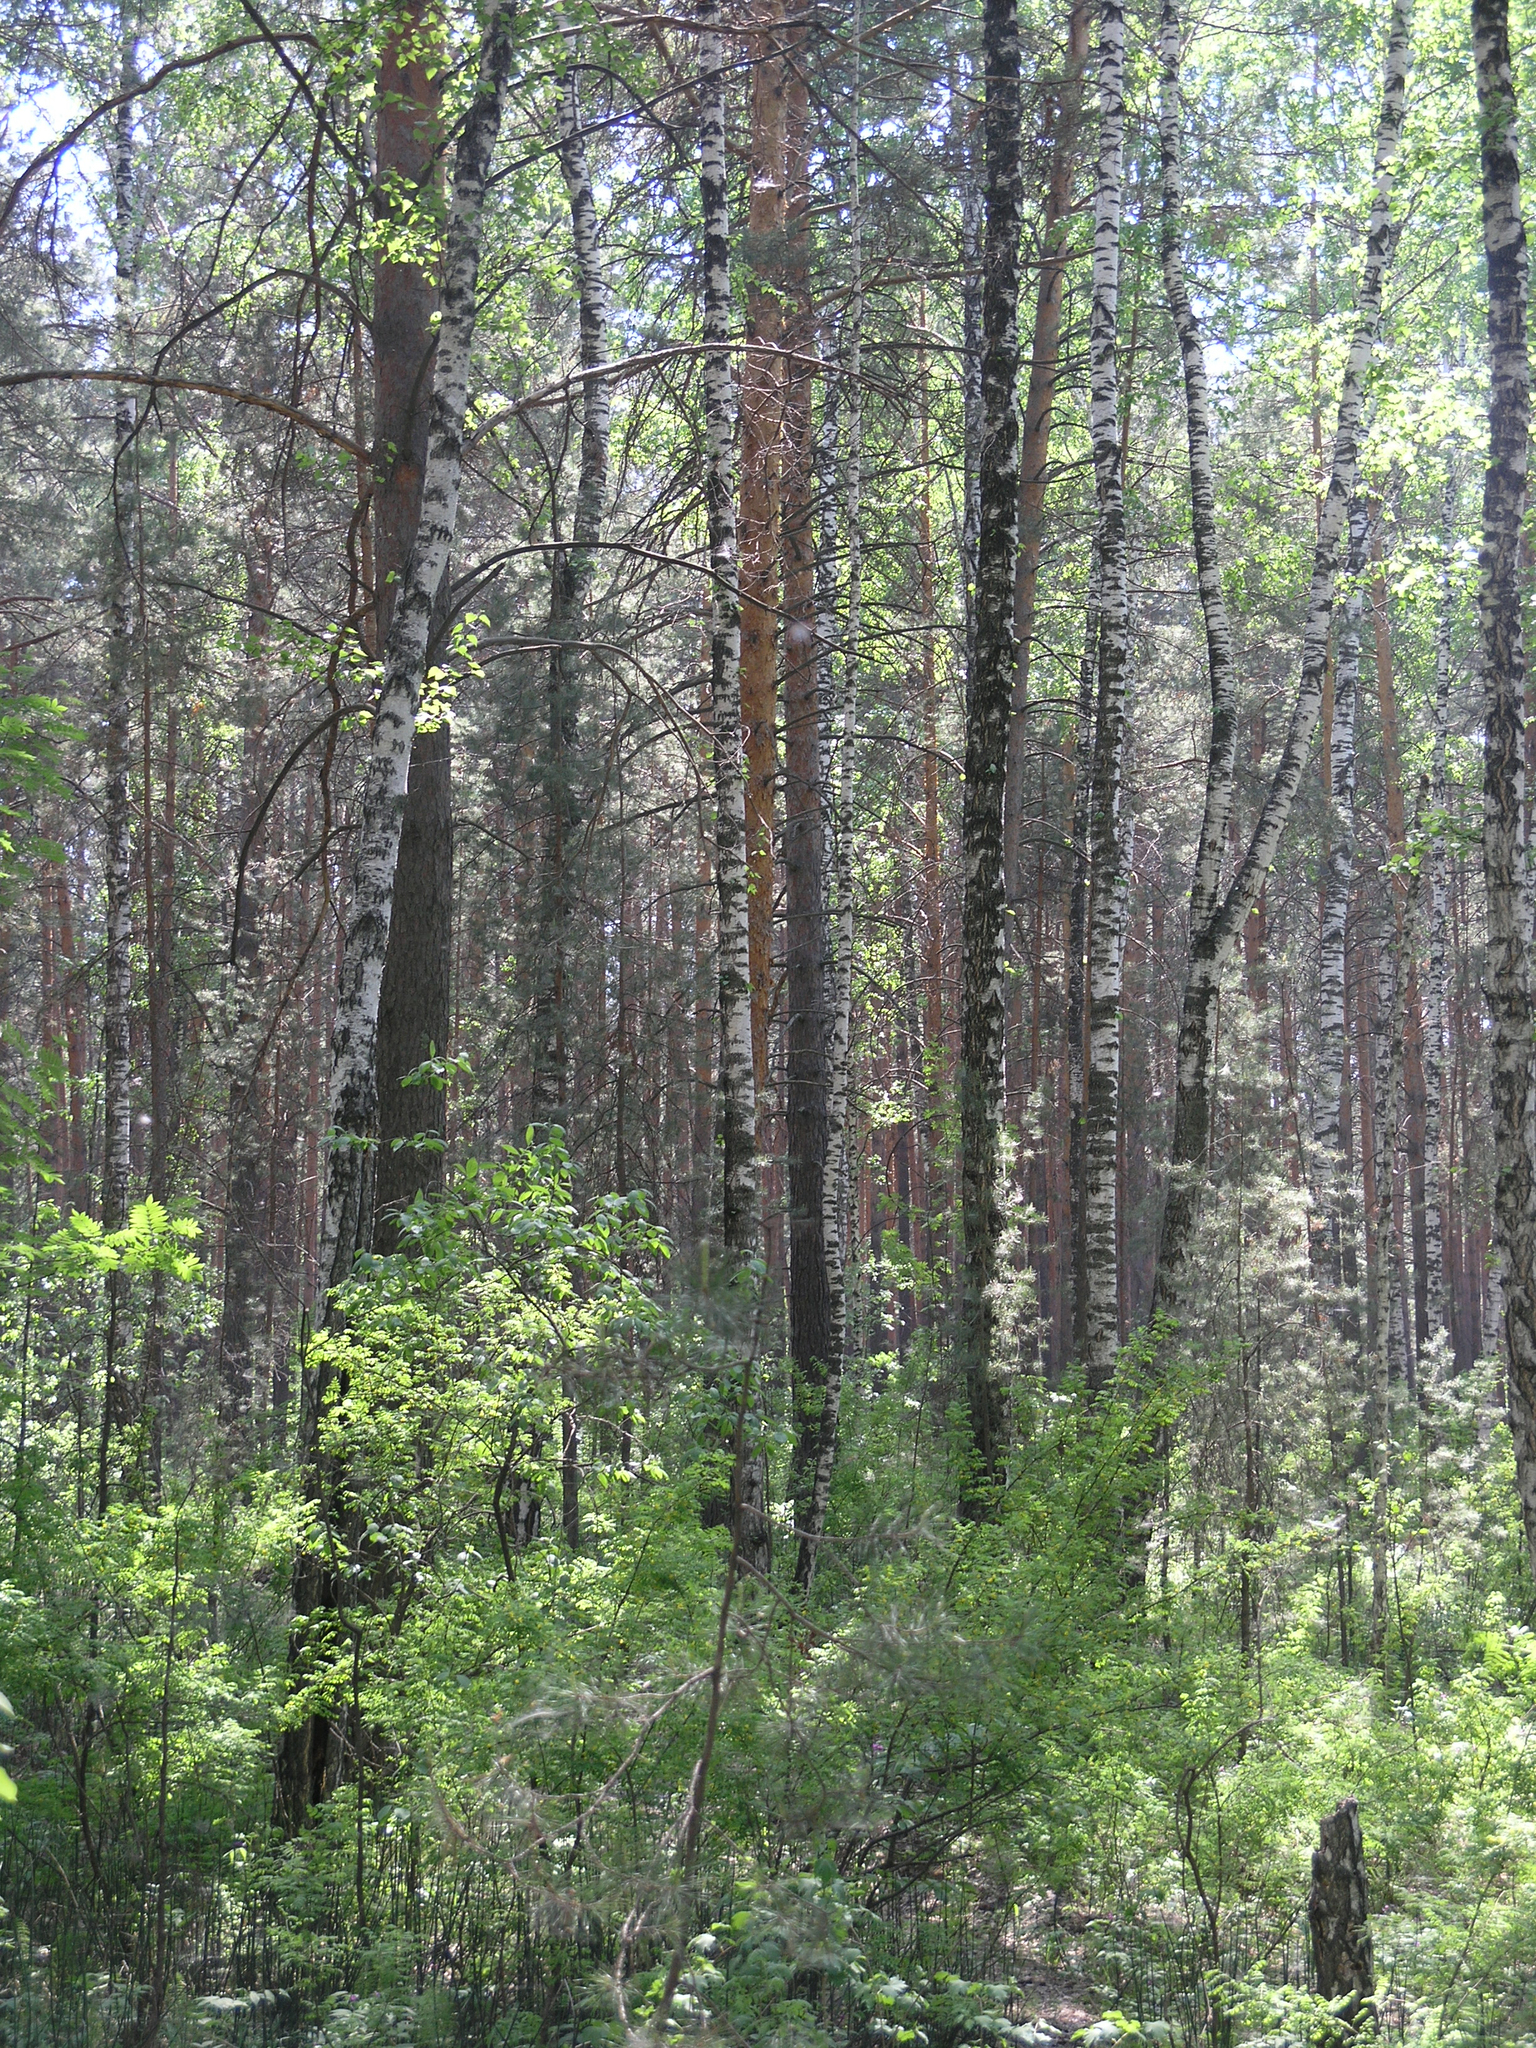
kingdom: Plantae
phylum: Tracheophyta
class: Pinopsida
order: Pinales
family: Pinaceae
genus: Pinus
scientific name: Pinus sylvestris
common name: Scots pine
